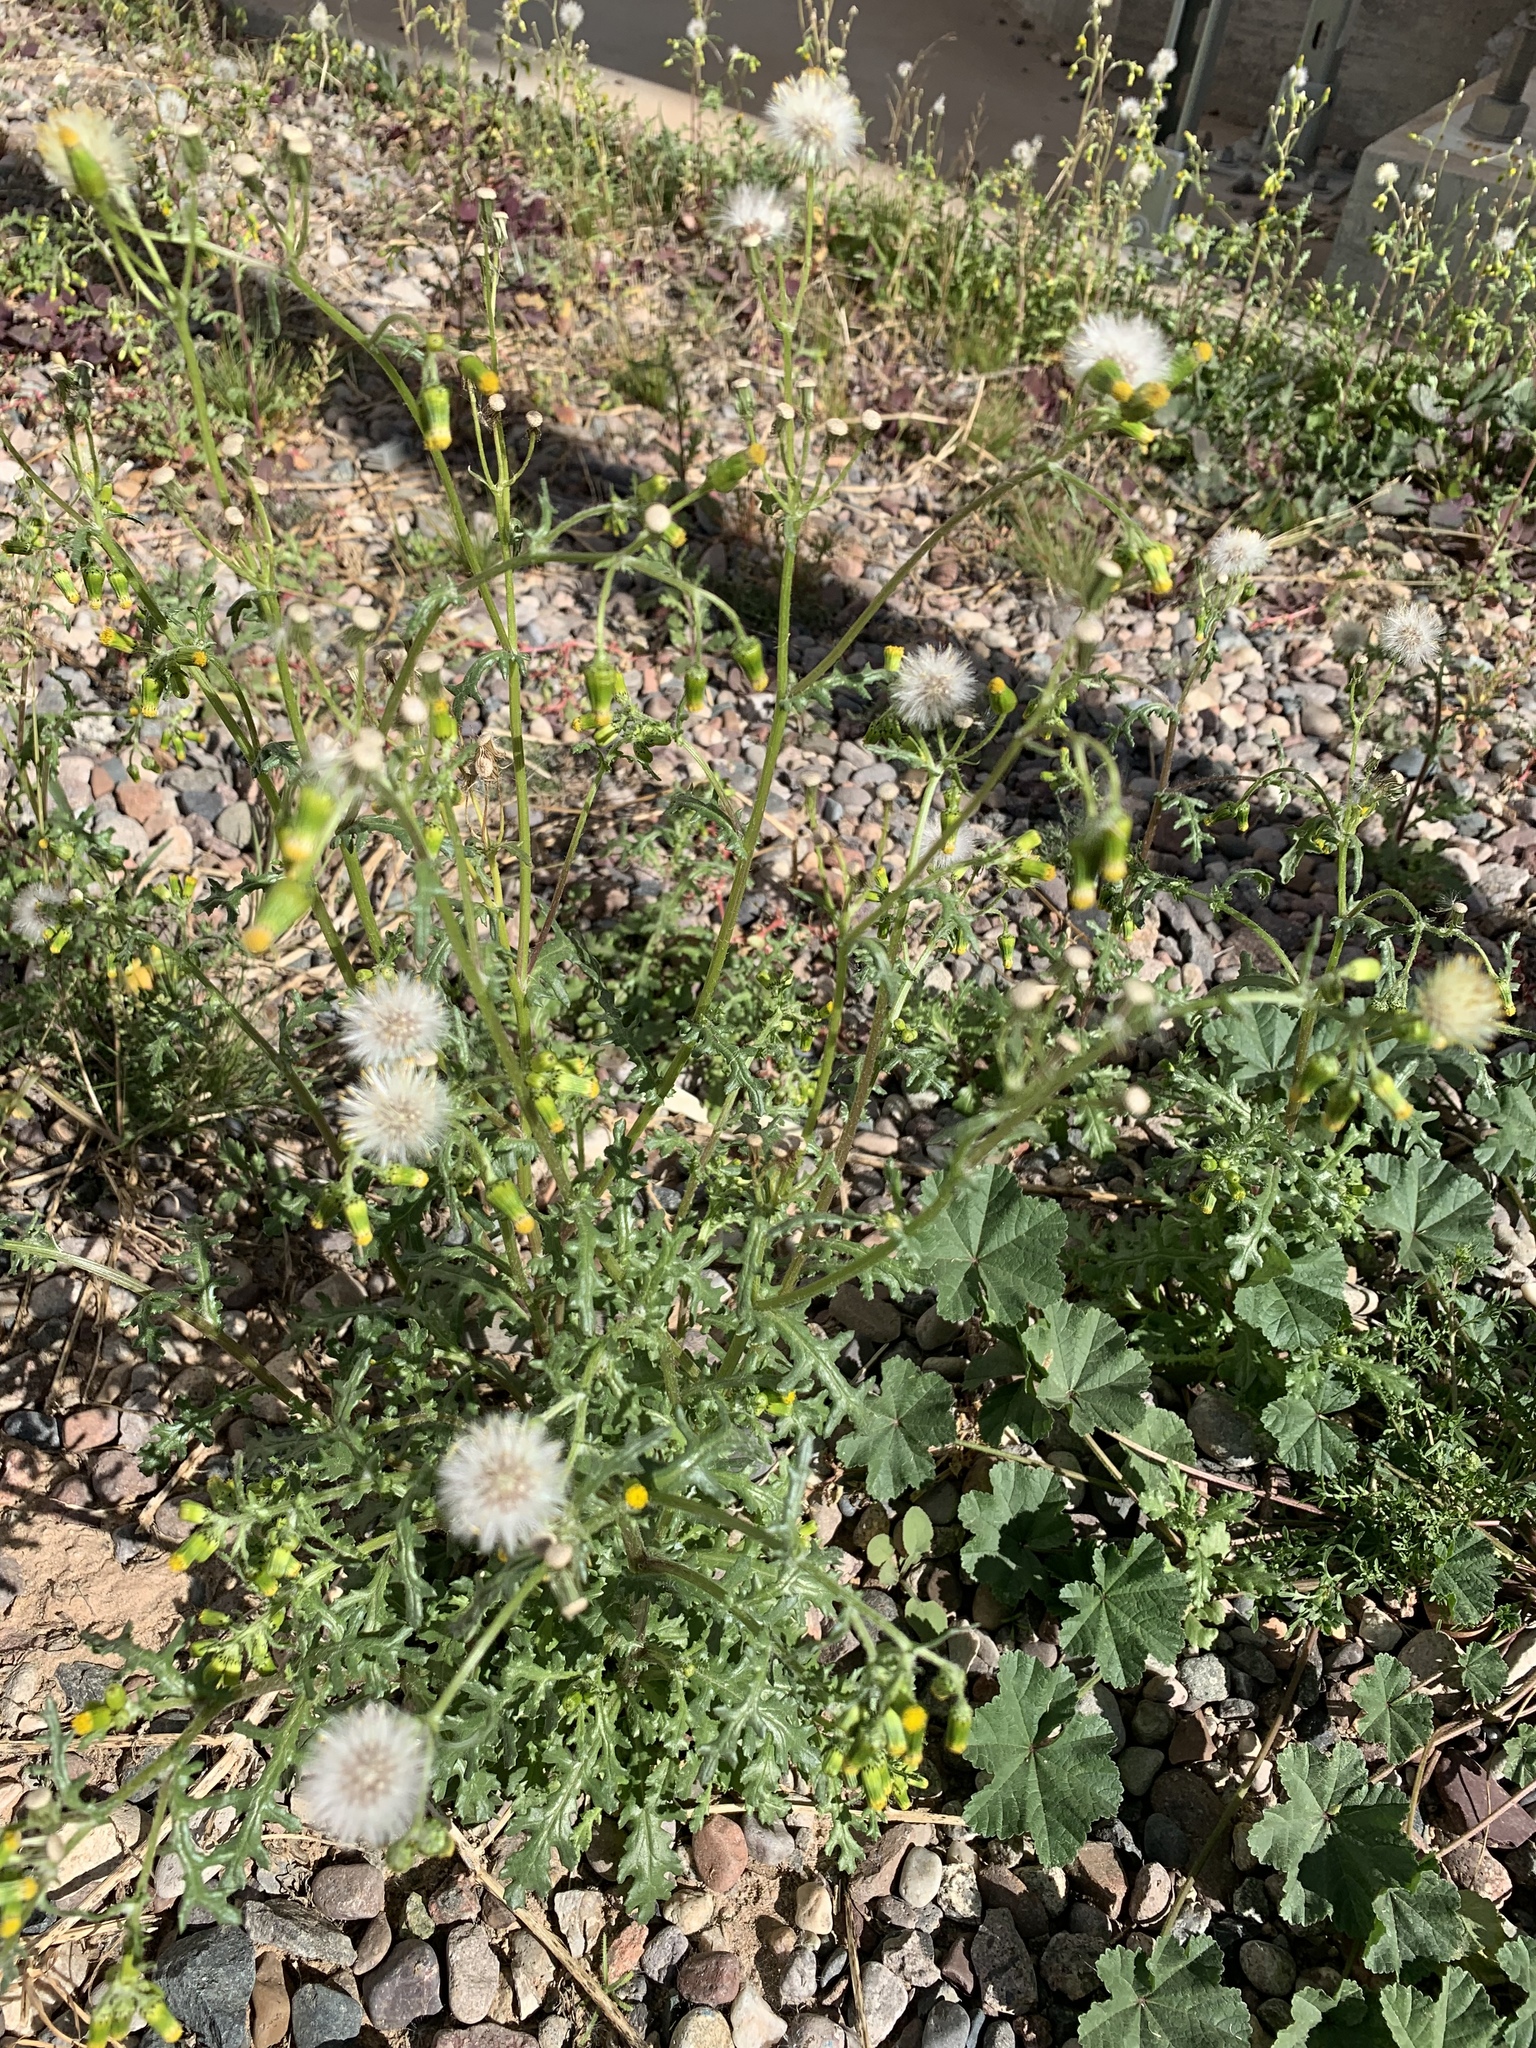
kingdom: Plantae
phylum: Tracheophyta
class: Magnoliopsida
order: Asterales
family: Asteraceae
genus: Senecio
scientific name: Senecio vulgaris
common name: Old-man-in-the-spring
